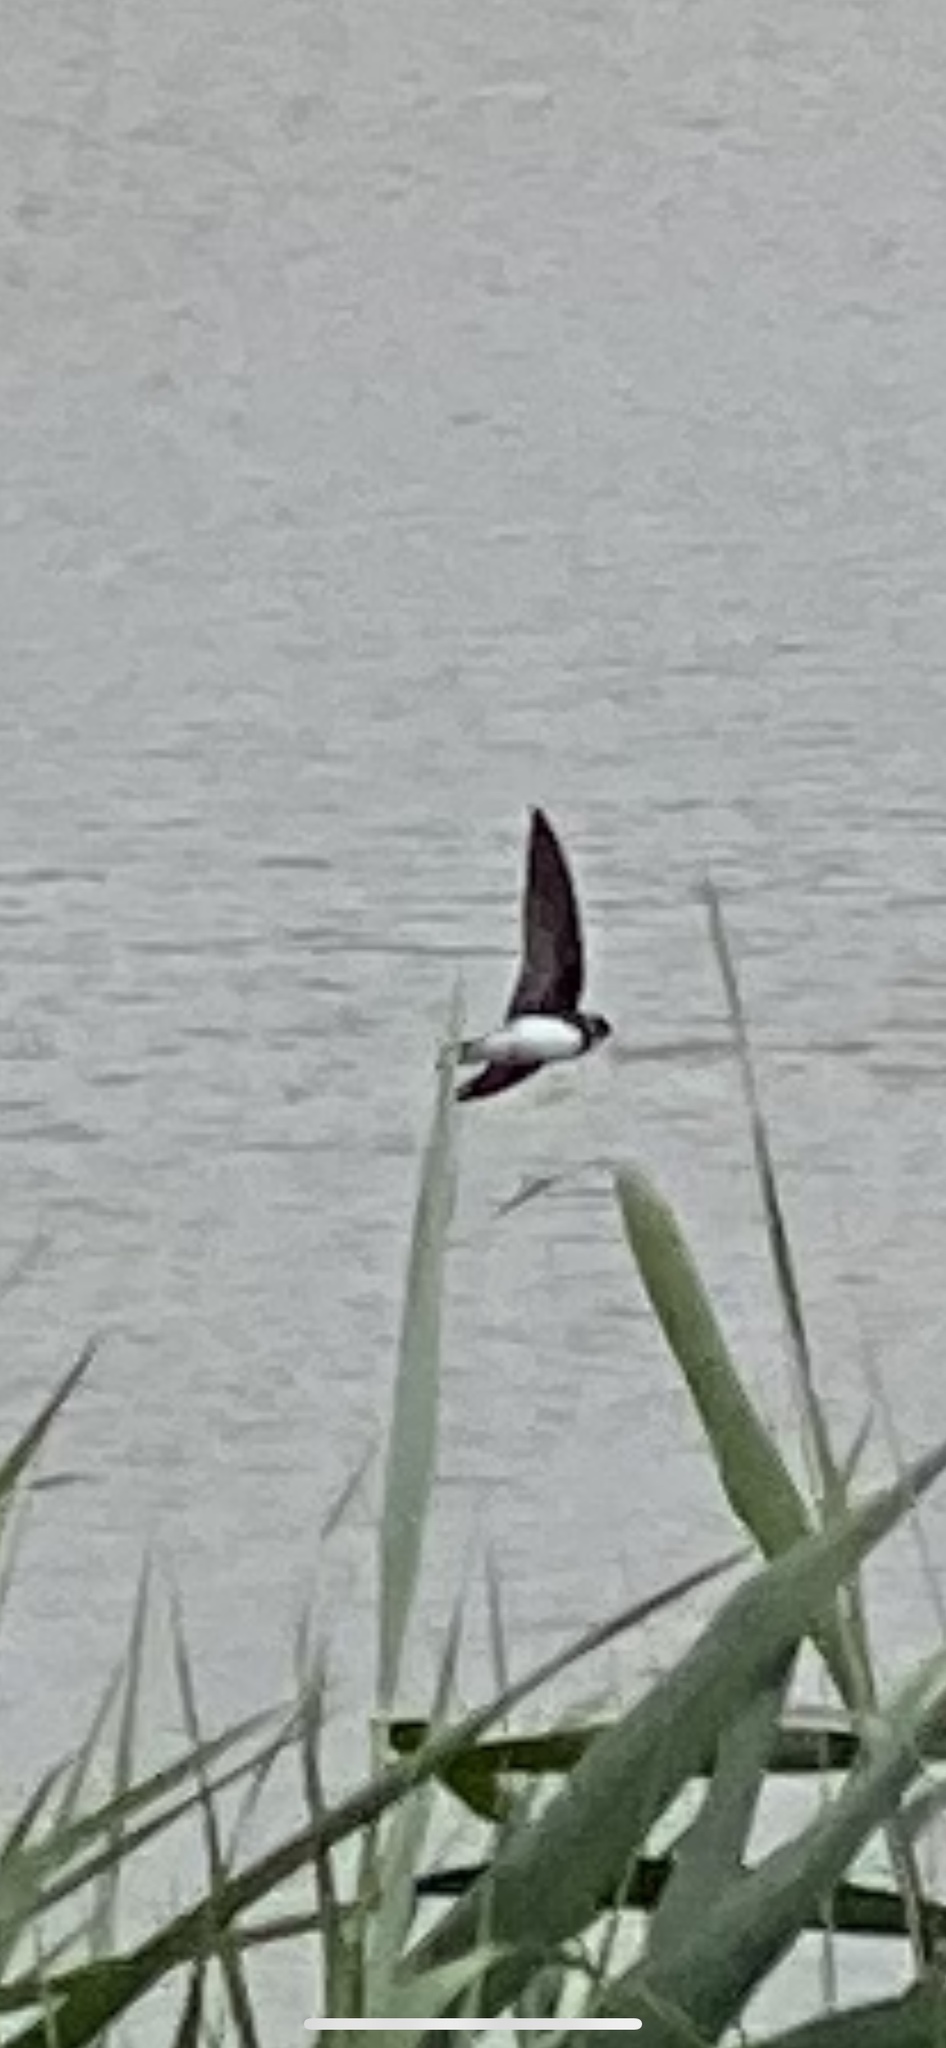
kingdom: Animalia
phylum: Chordata
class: Aves
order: Passeriformes
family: Hirundinidae
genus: Riparia
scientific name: Riparia riparia
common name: Sand martin
